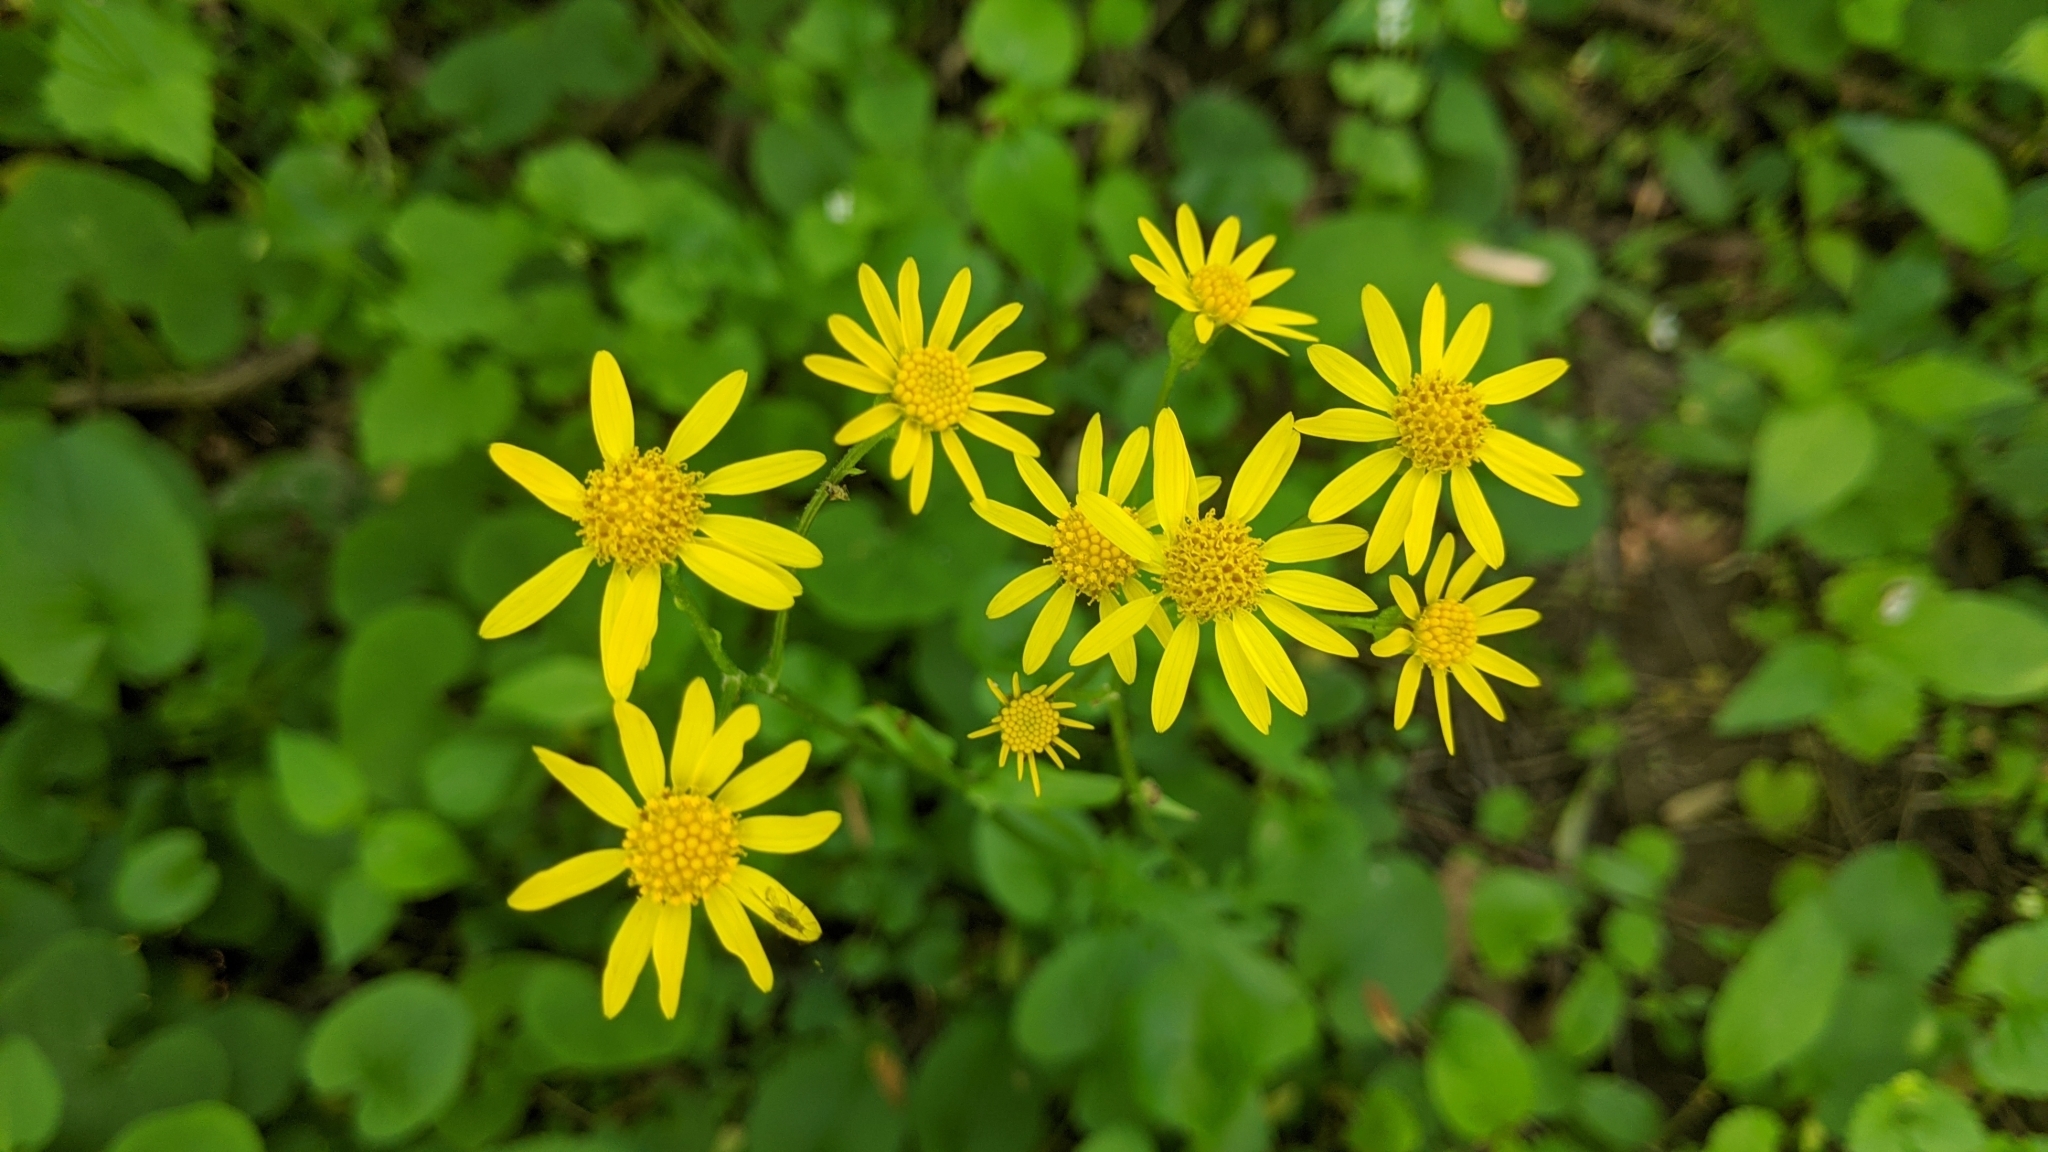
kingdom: Plantae
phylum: Tracheophyta
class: Magnoliopsida
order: Asterales
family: Asteraceae
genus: Packera
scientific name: Packera aurea
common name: Golden groundsel
